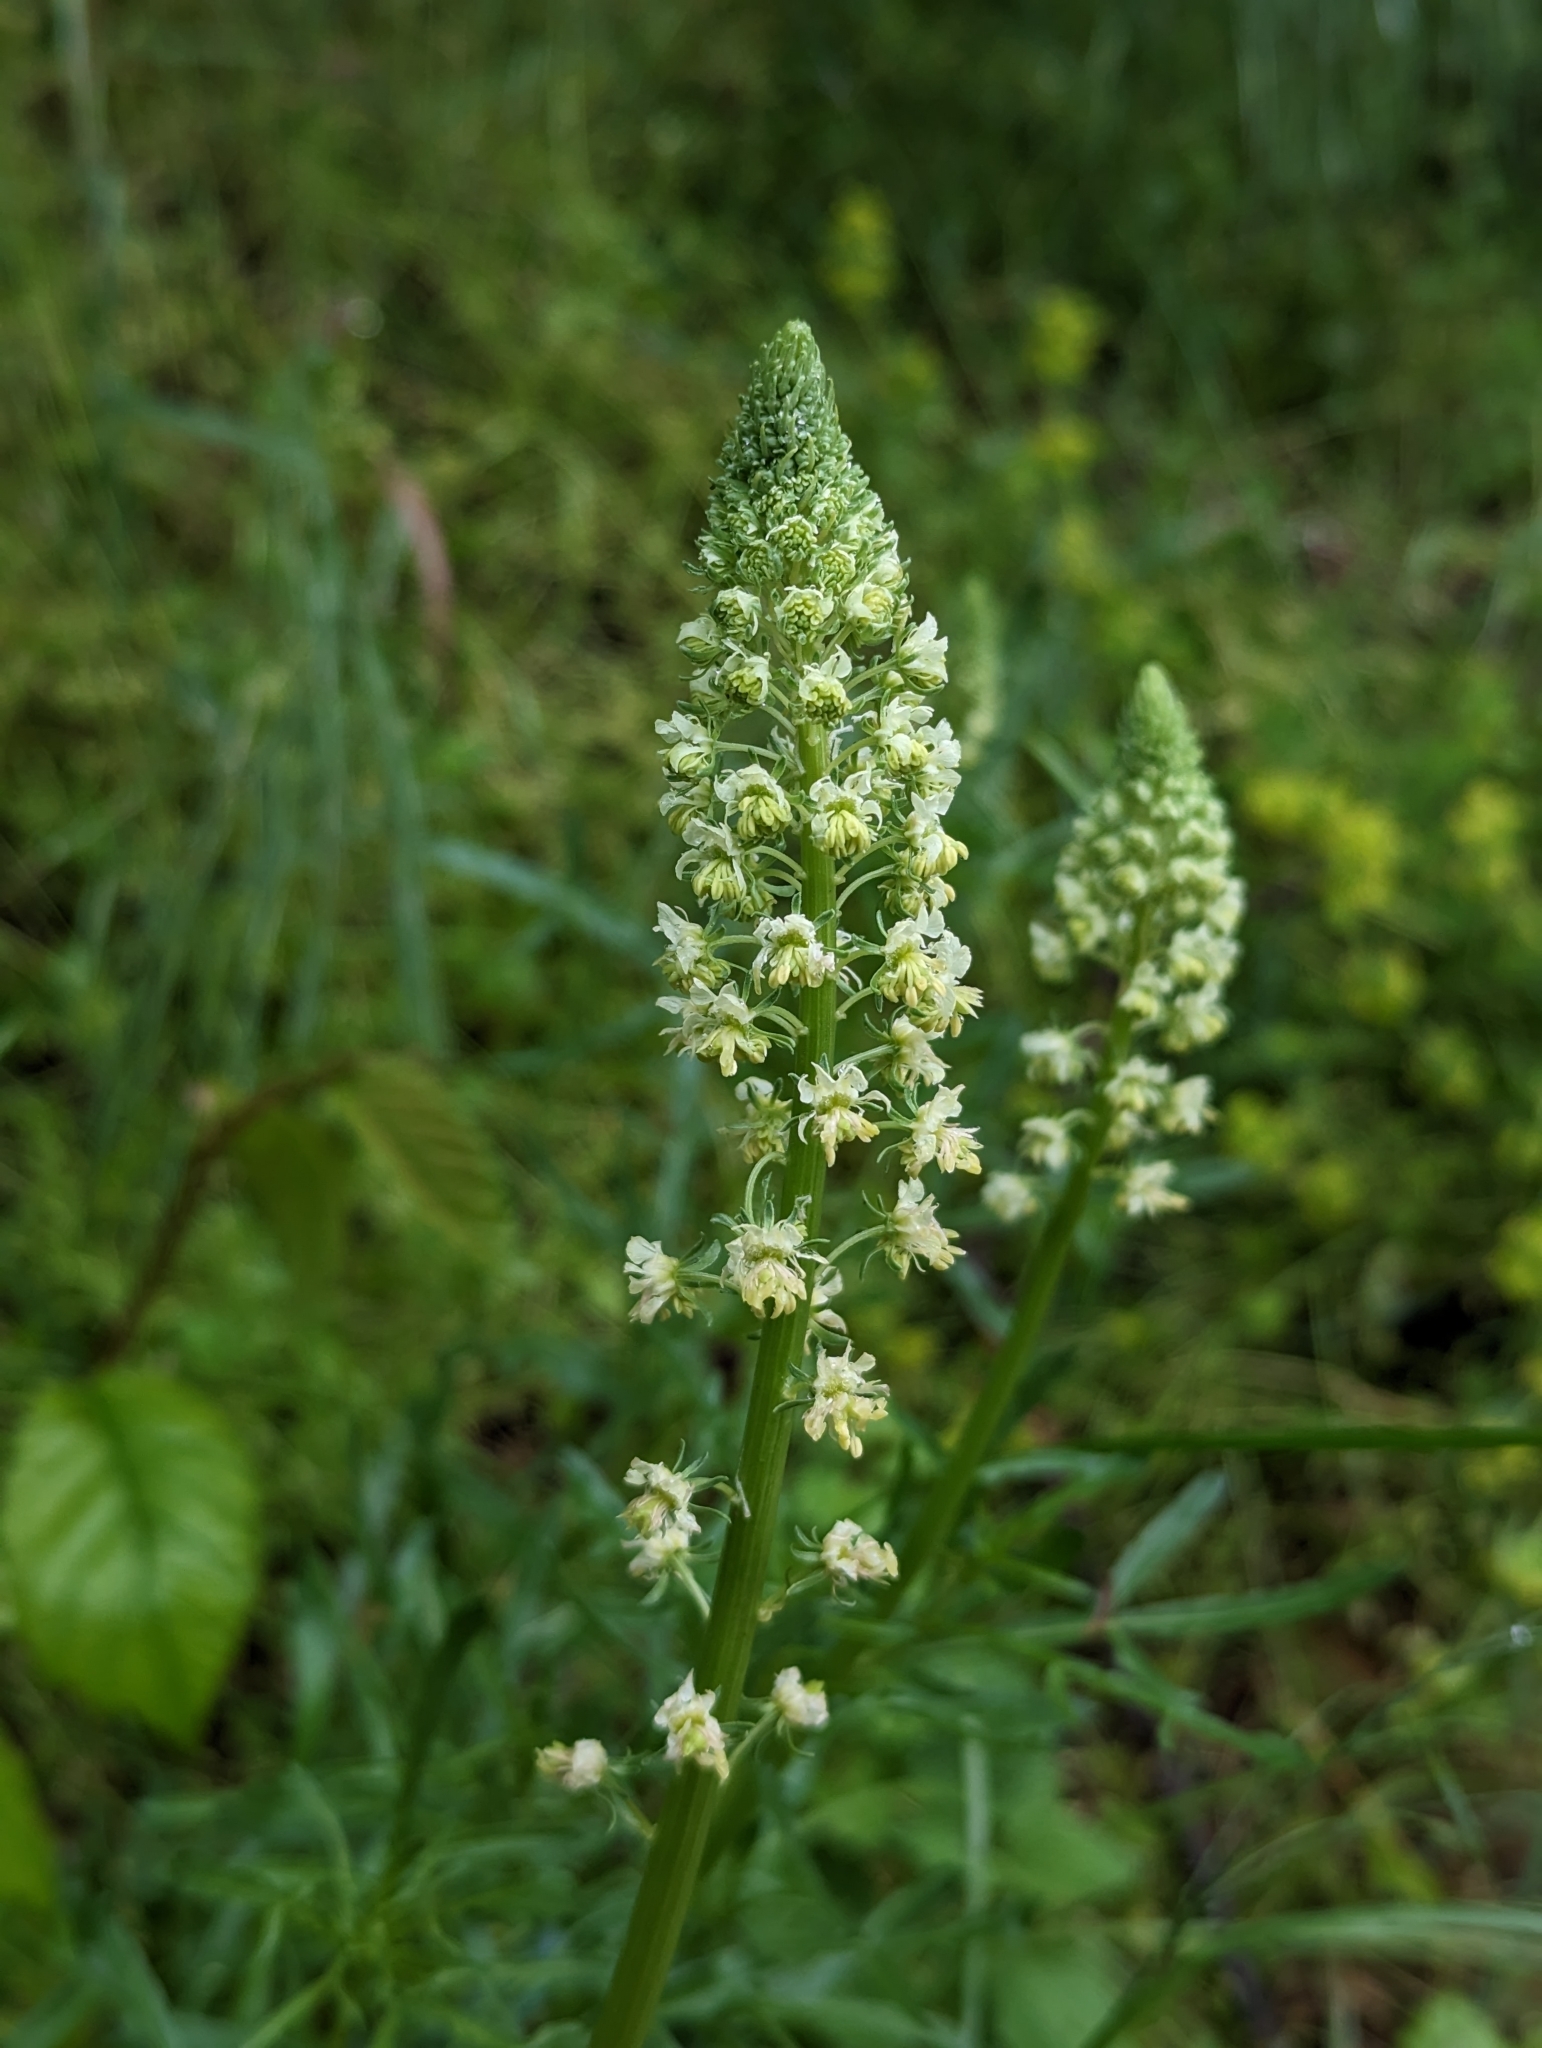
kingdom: Plantae
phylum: Tracheophyta
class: Magnoliopsida
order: Brassicales
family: Resedaceae
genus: Reseda
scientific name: Reseda lutea
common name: Wild mignonette
